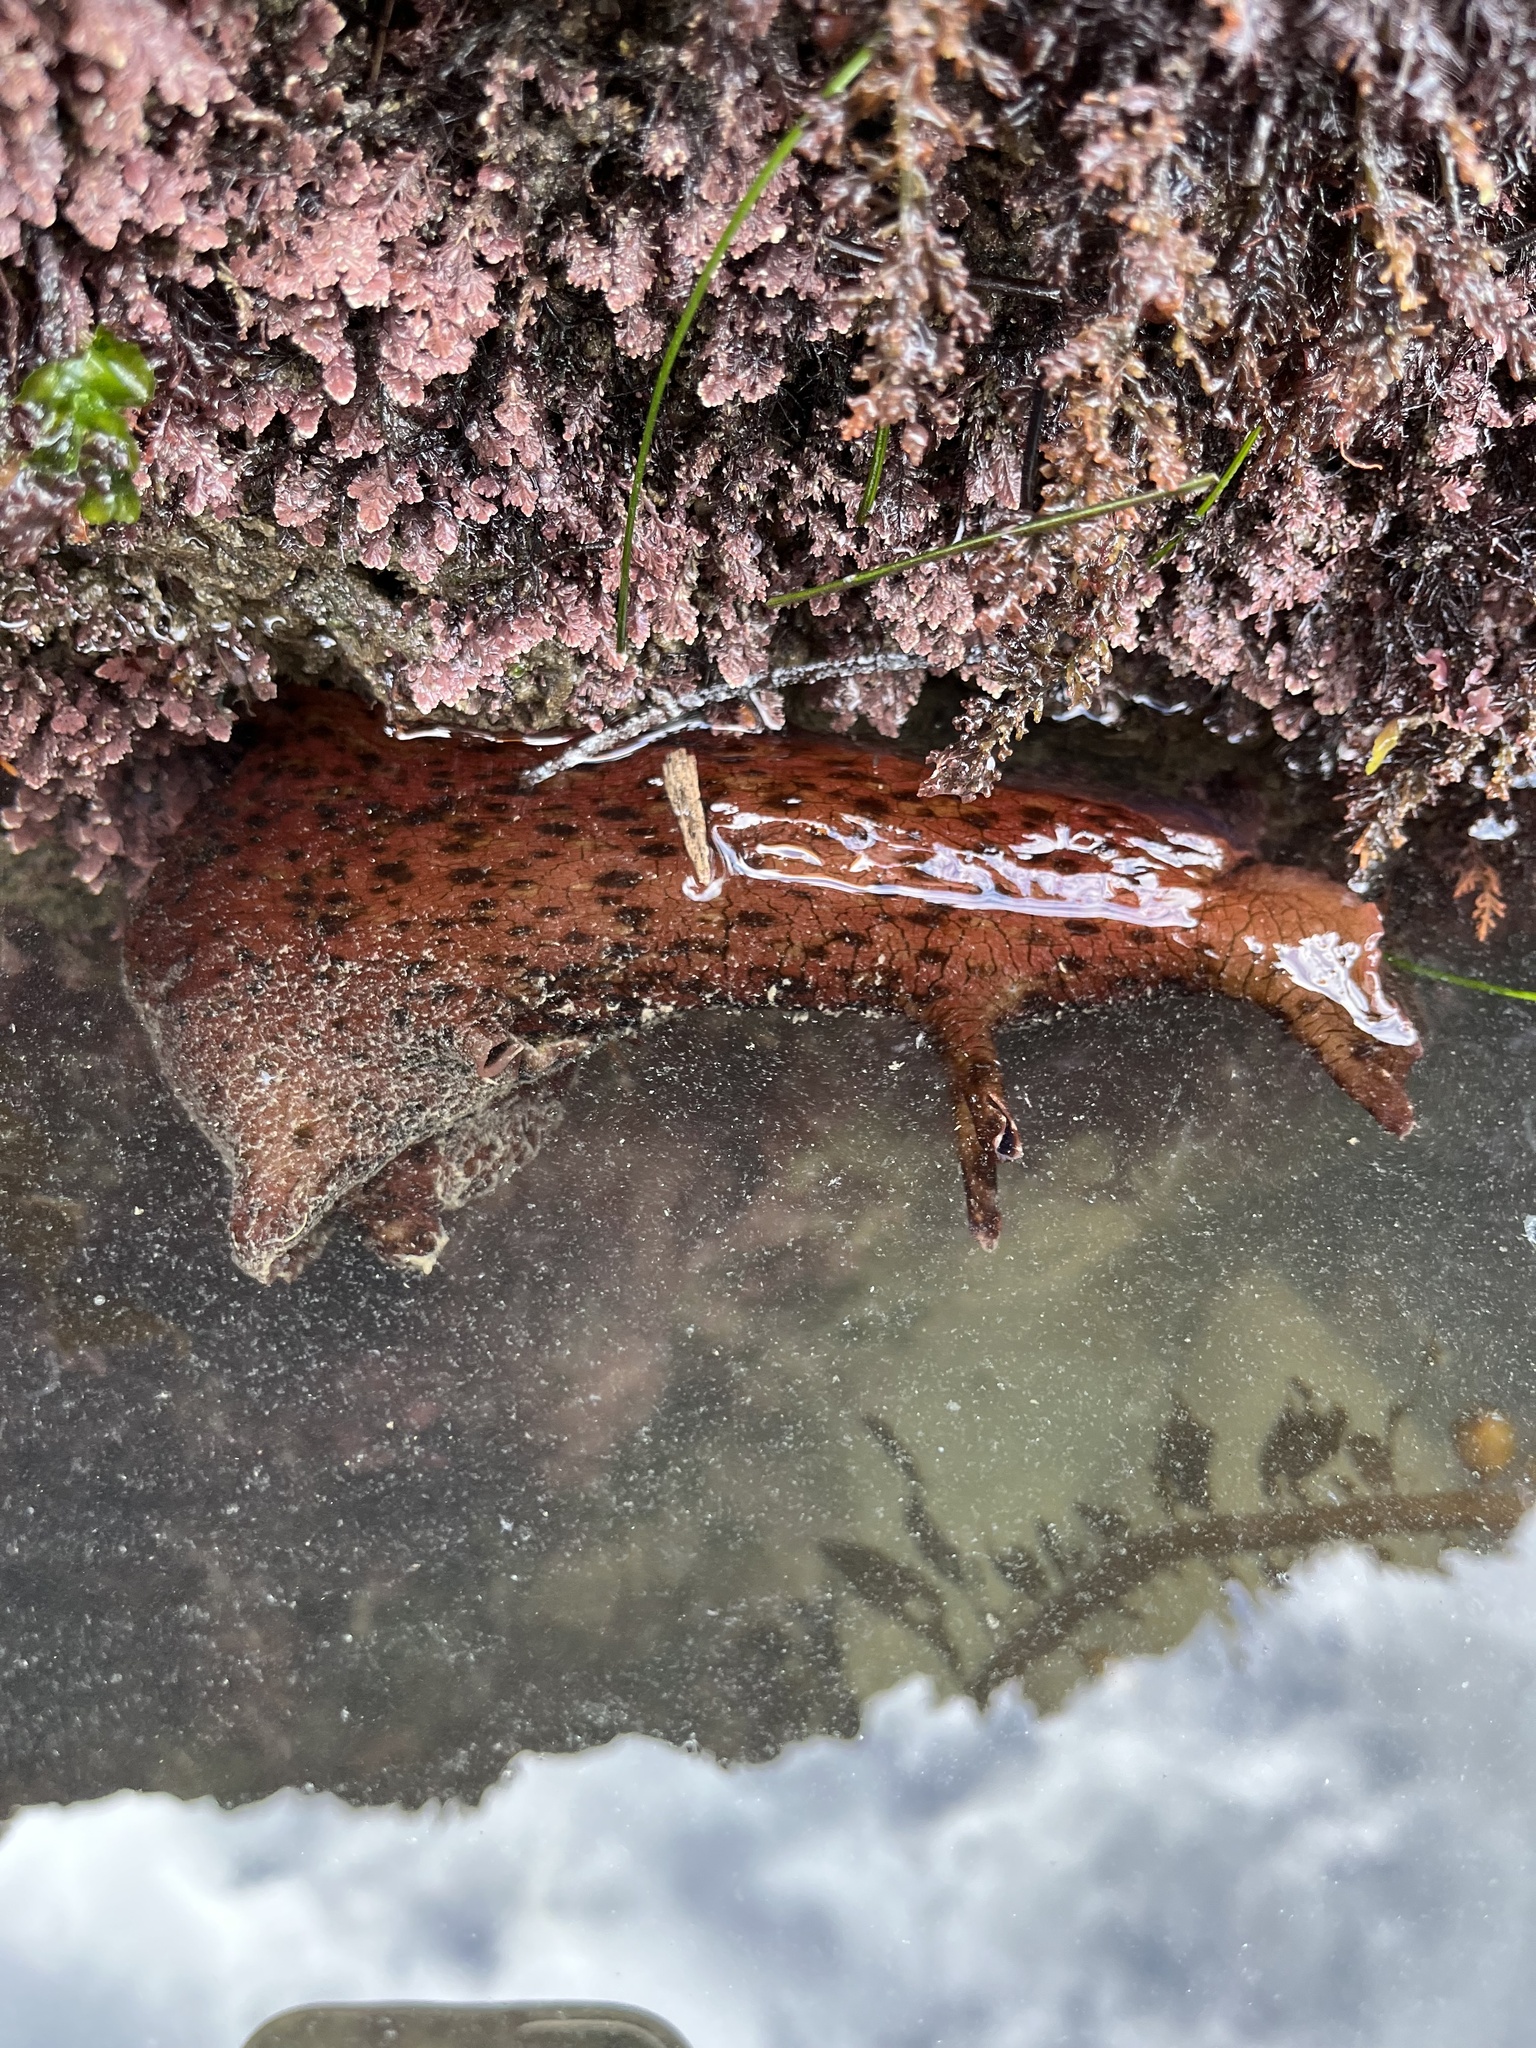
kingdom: Animalia
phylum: Mollusca
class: Gastropoda
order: Aplysiida
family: Aplysiidae
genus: Aplysia
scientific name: Aplysia californica
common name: California seahare
